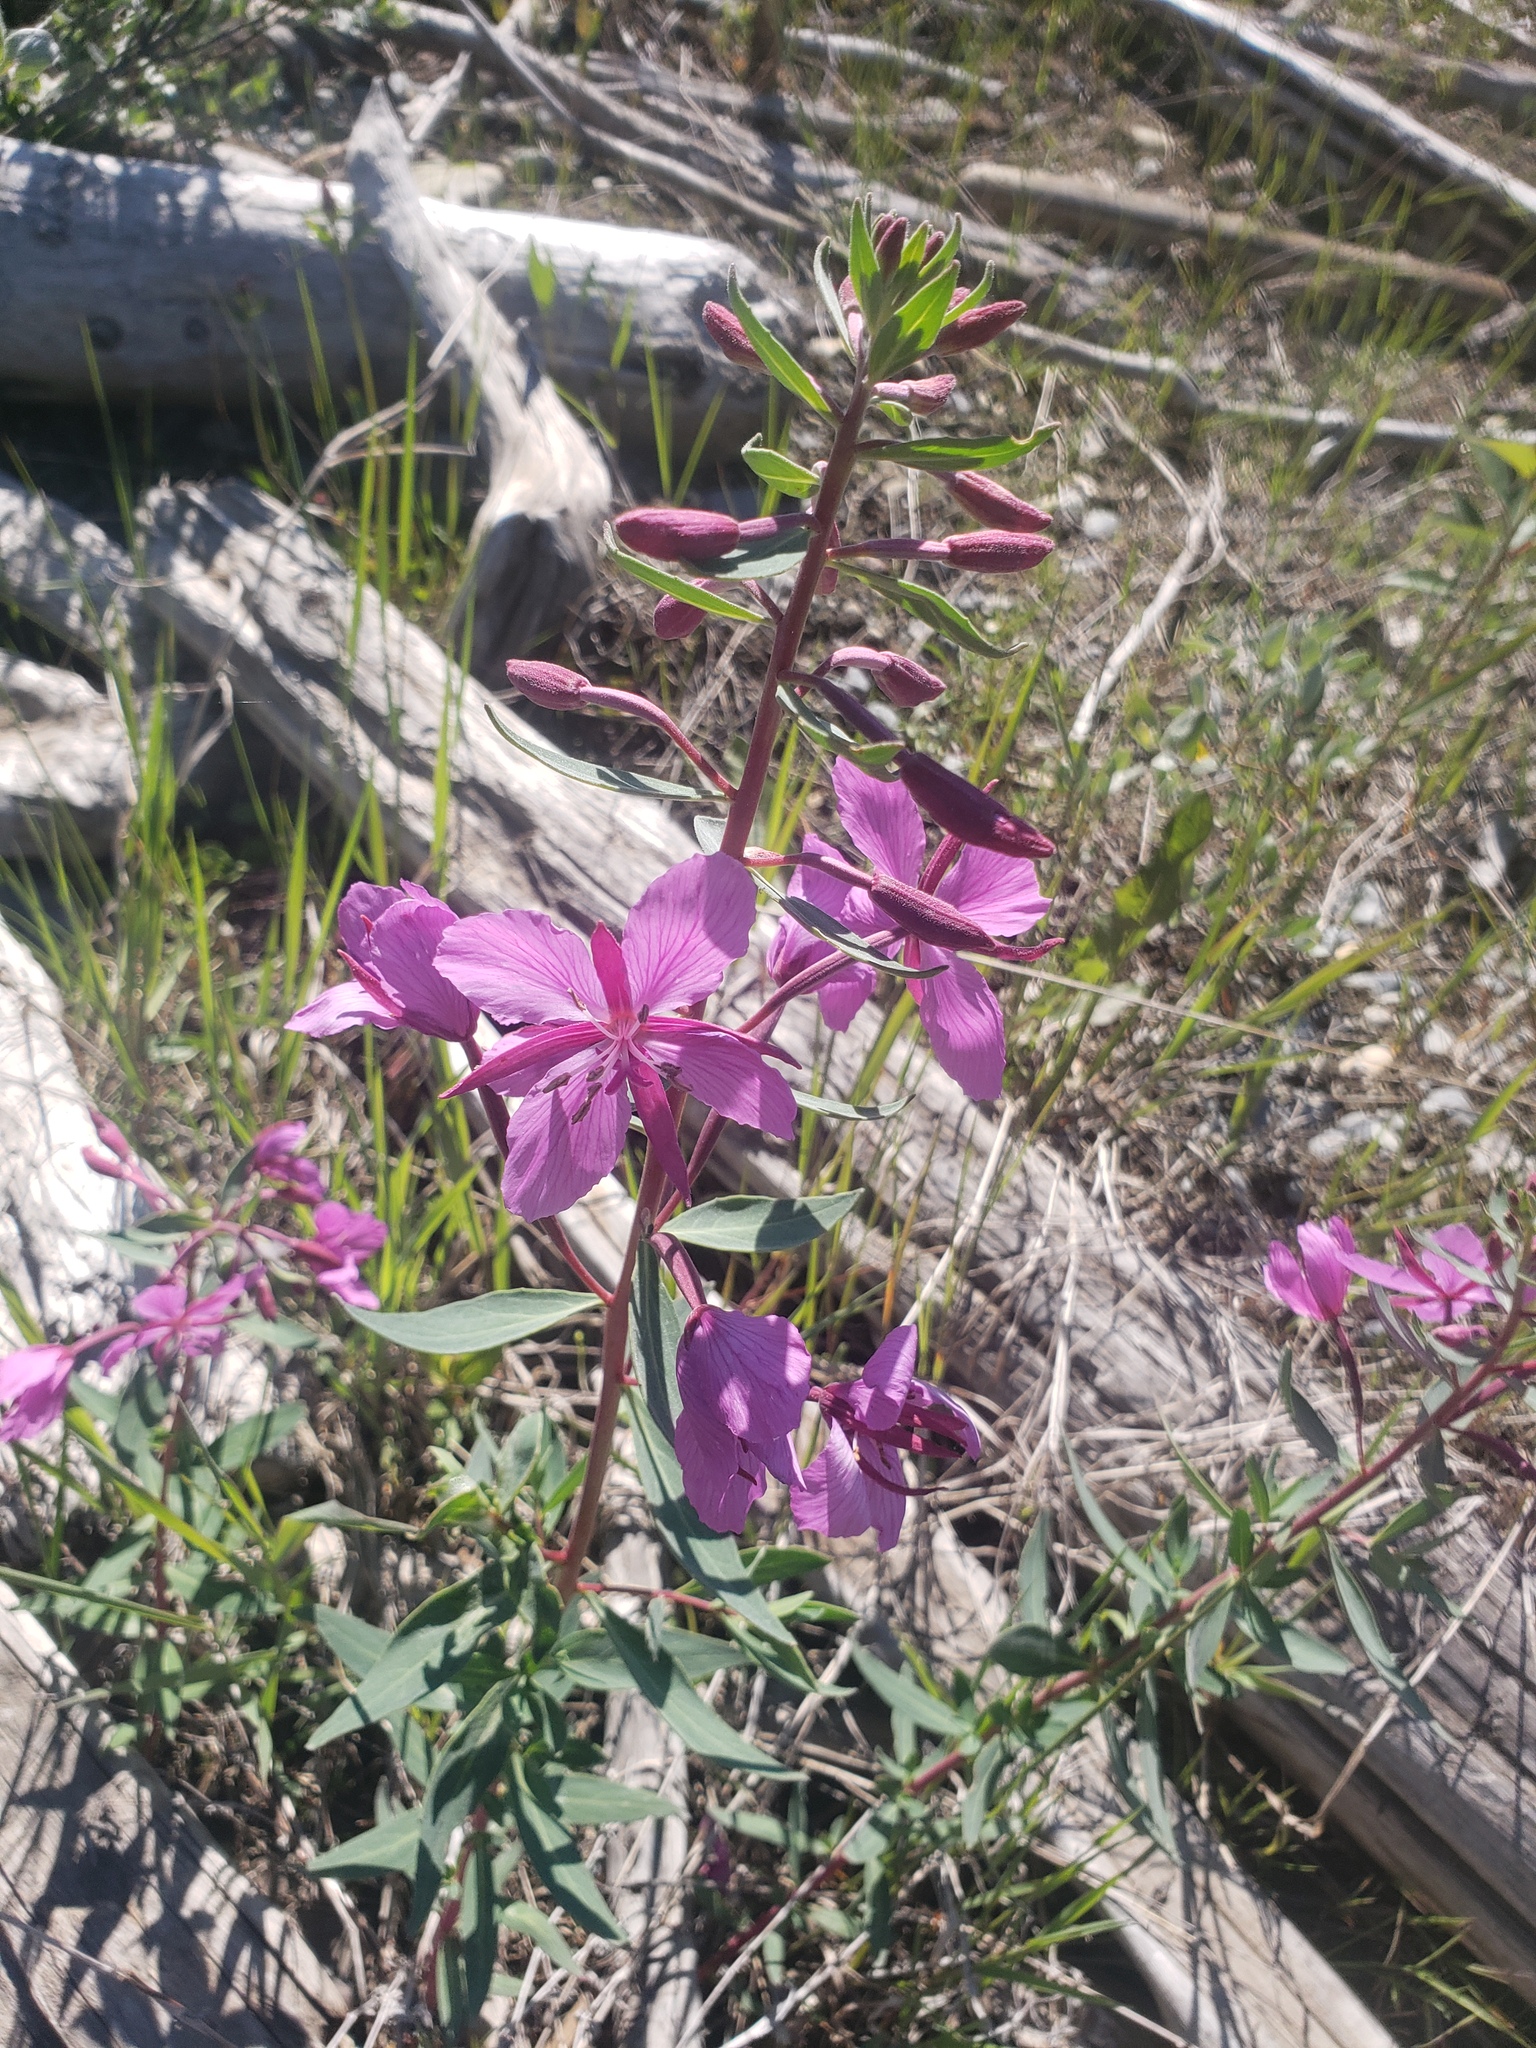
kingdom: Plantae
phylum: Tracheophyta
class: Magnoliopsida
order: Myrtales
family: Onagraceae
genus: Chamaenerion
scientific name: Chamaenerion latifolium
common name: Dwarf fireweed
